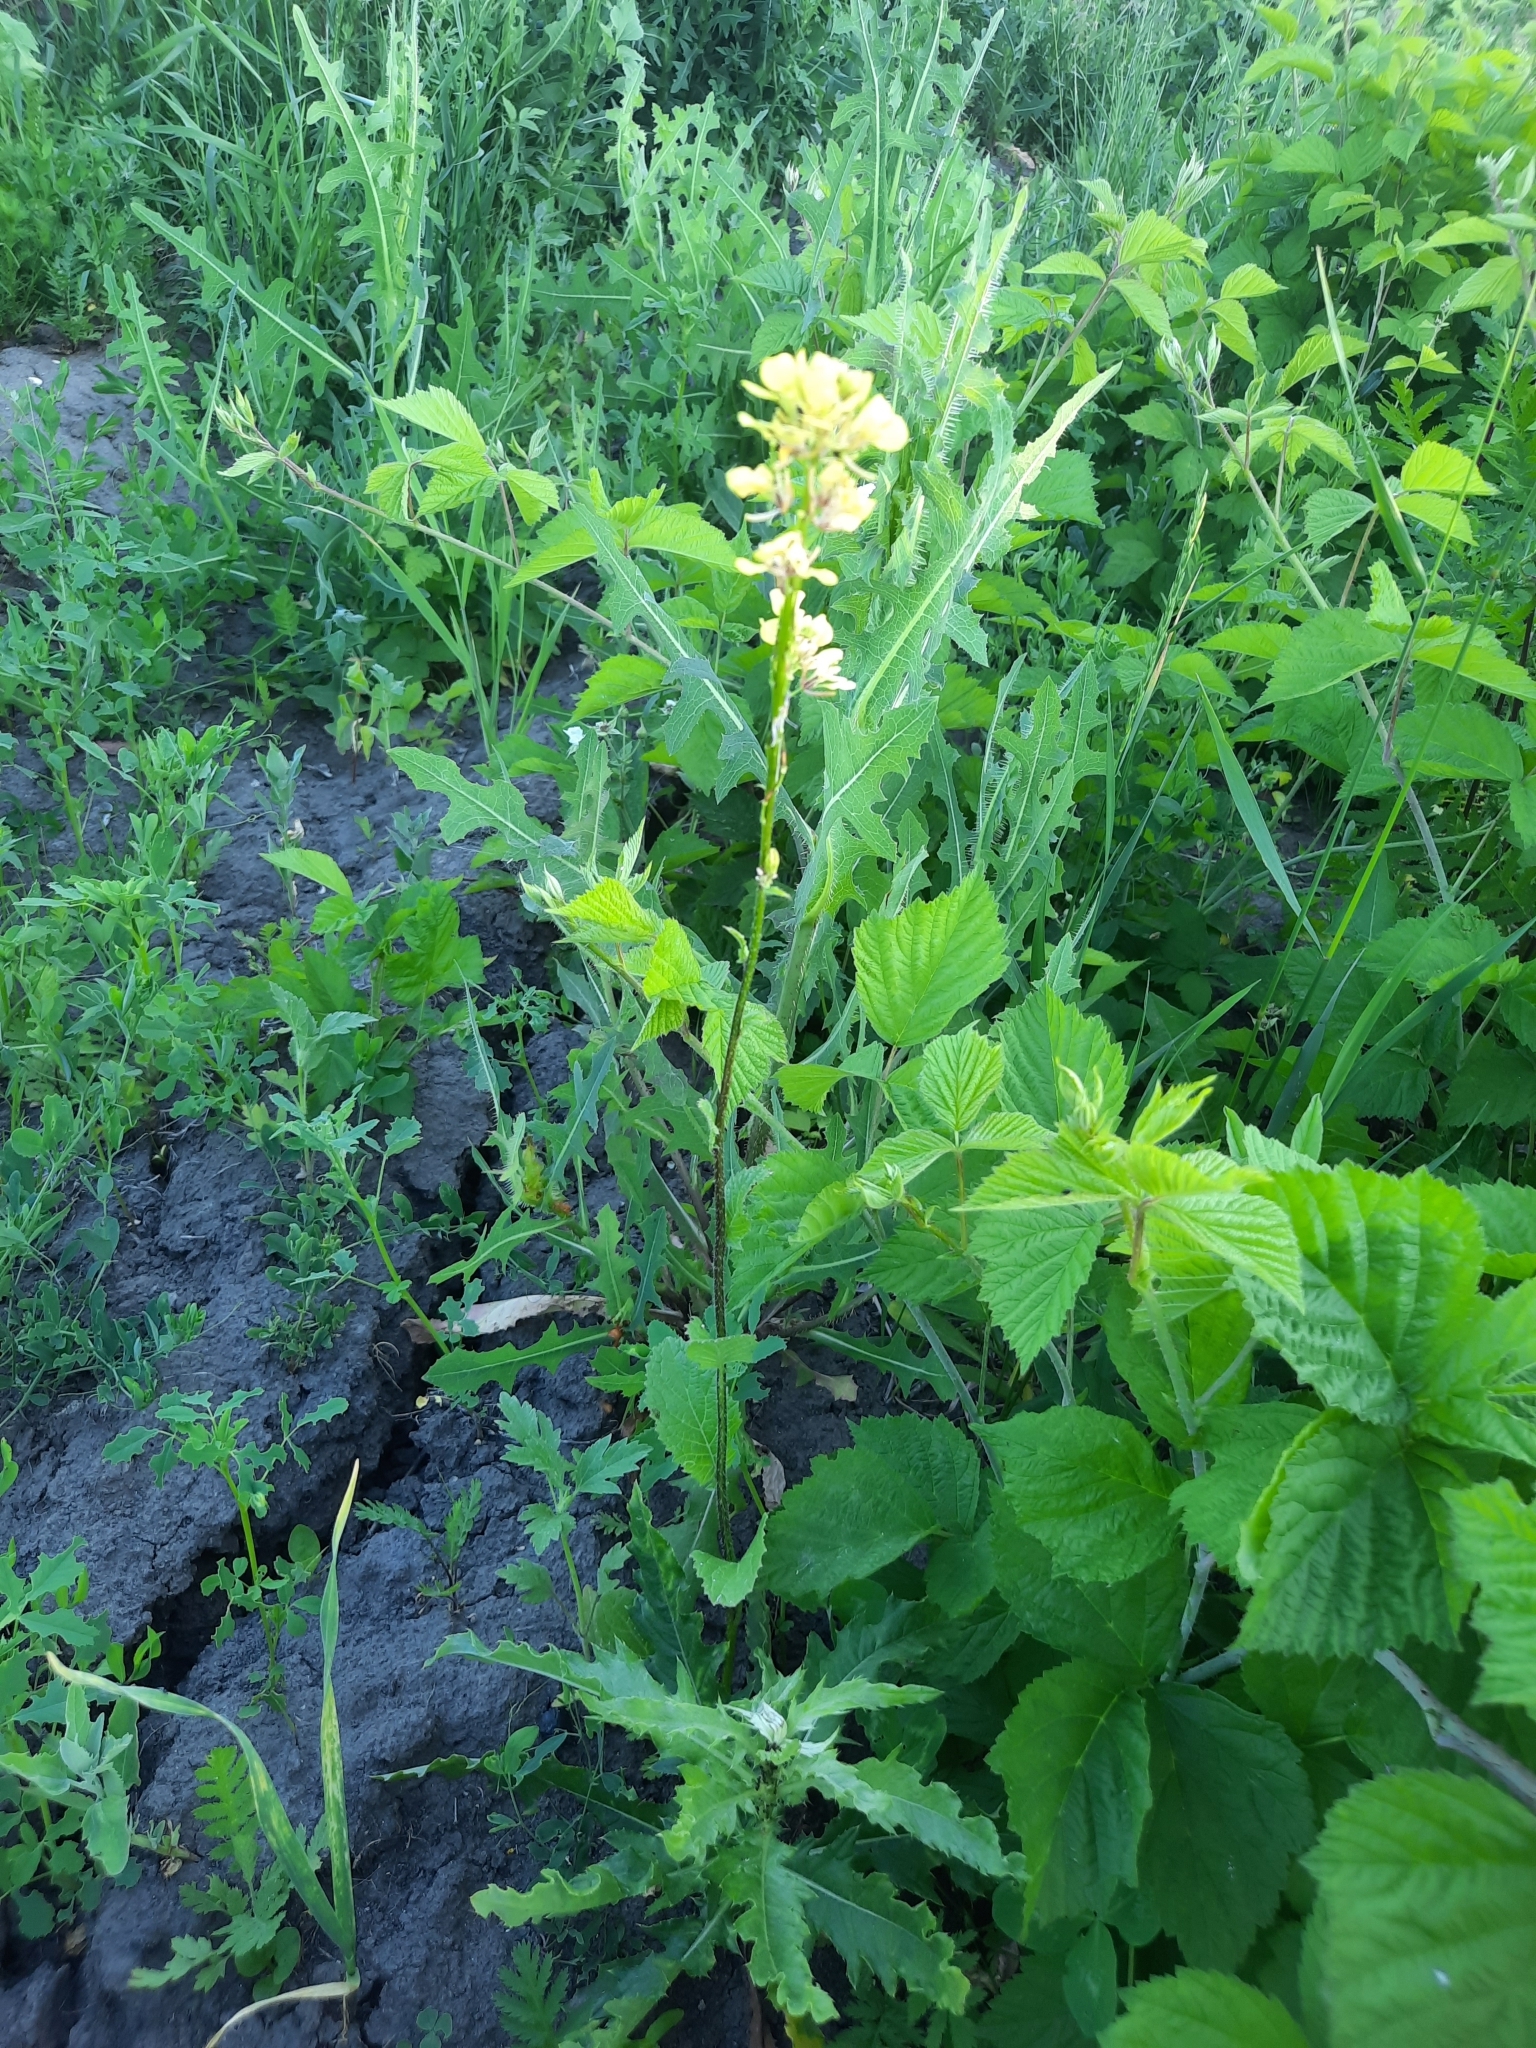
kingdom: Plantae
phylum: Tracheophyta
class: Magnoliopsida
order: Brassicales
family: Brassicaceae
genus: Sinapis
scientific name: Sinapis arvensis
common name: Charlock
